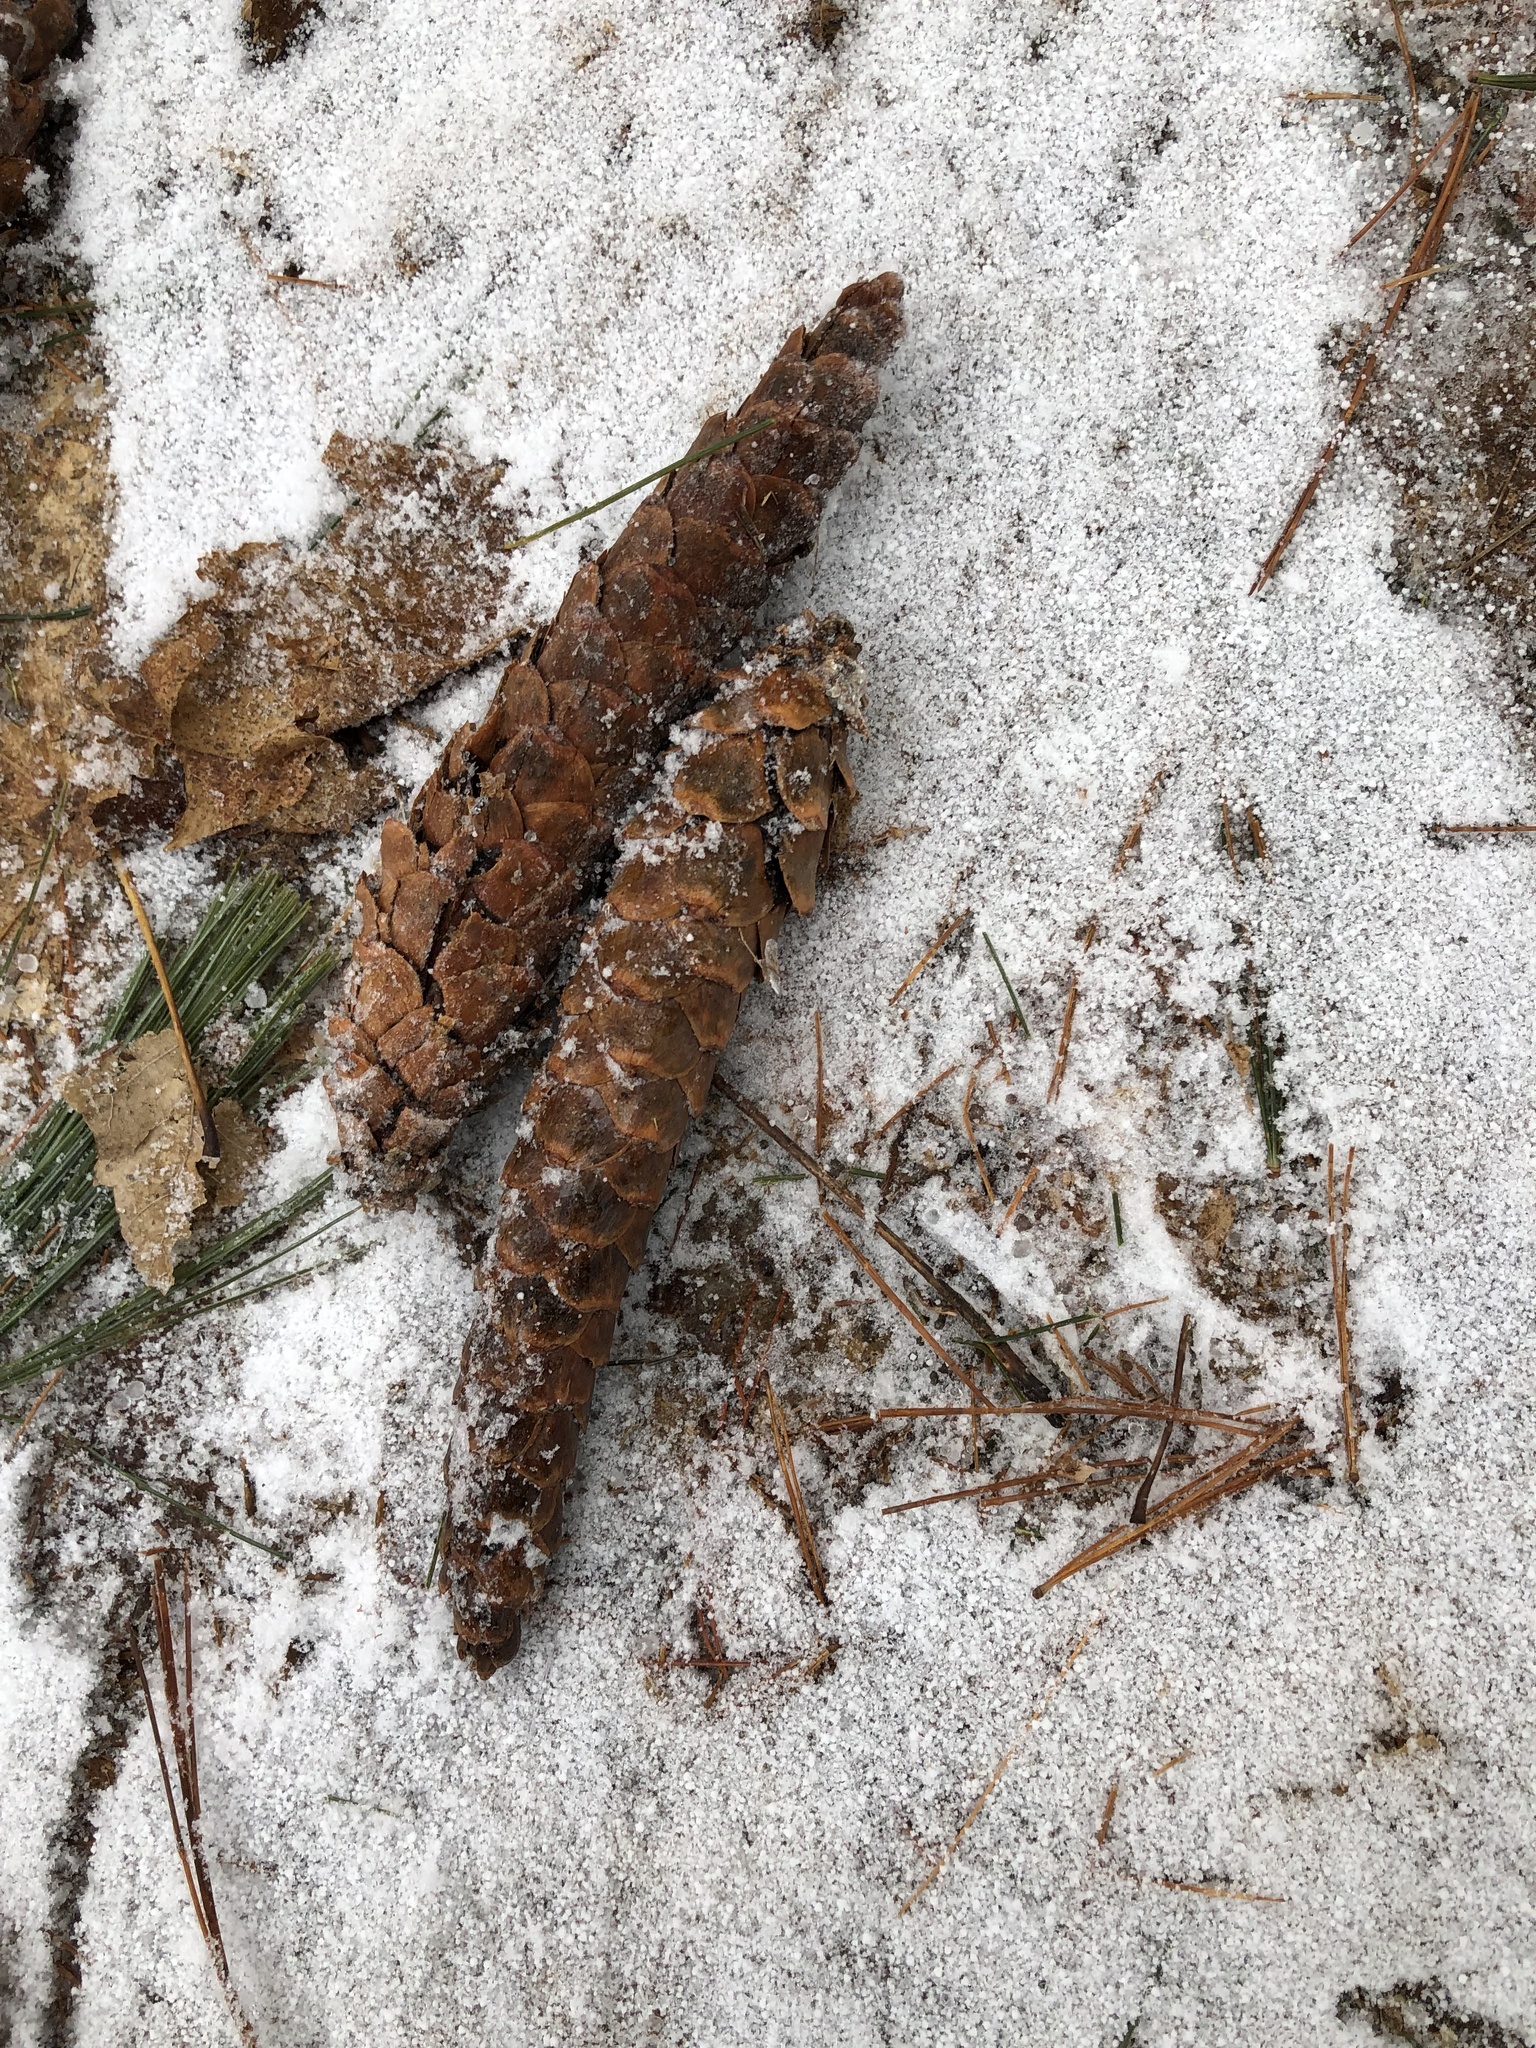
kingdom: Plantae
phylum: Tracheophyta
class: Pinopsida
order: Pinales
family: Pinaceae
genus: Pinus
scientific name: Pinus strobus
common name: Weymouth pine
